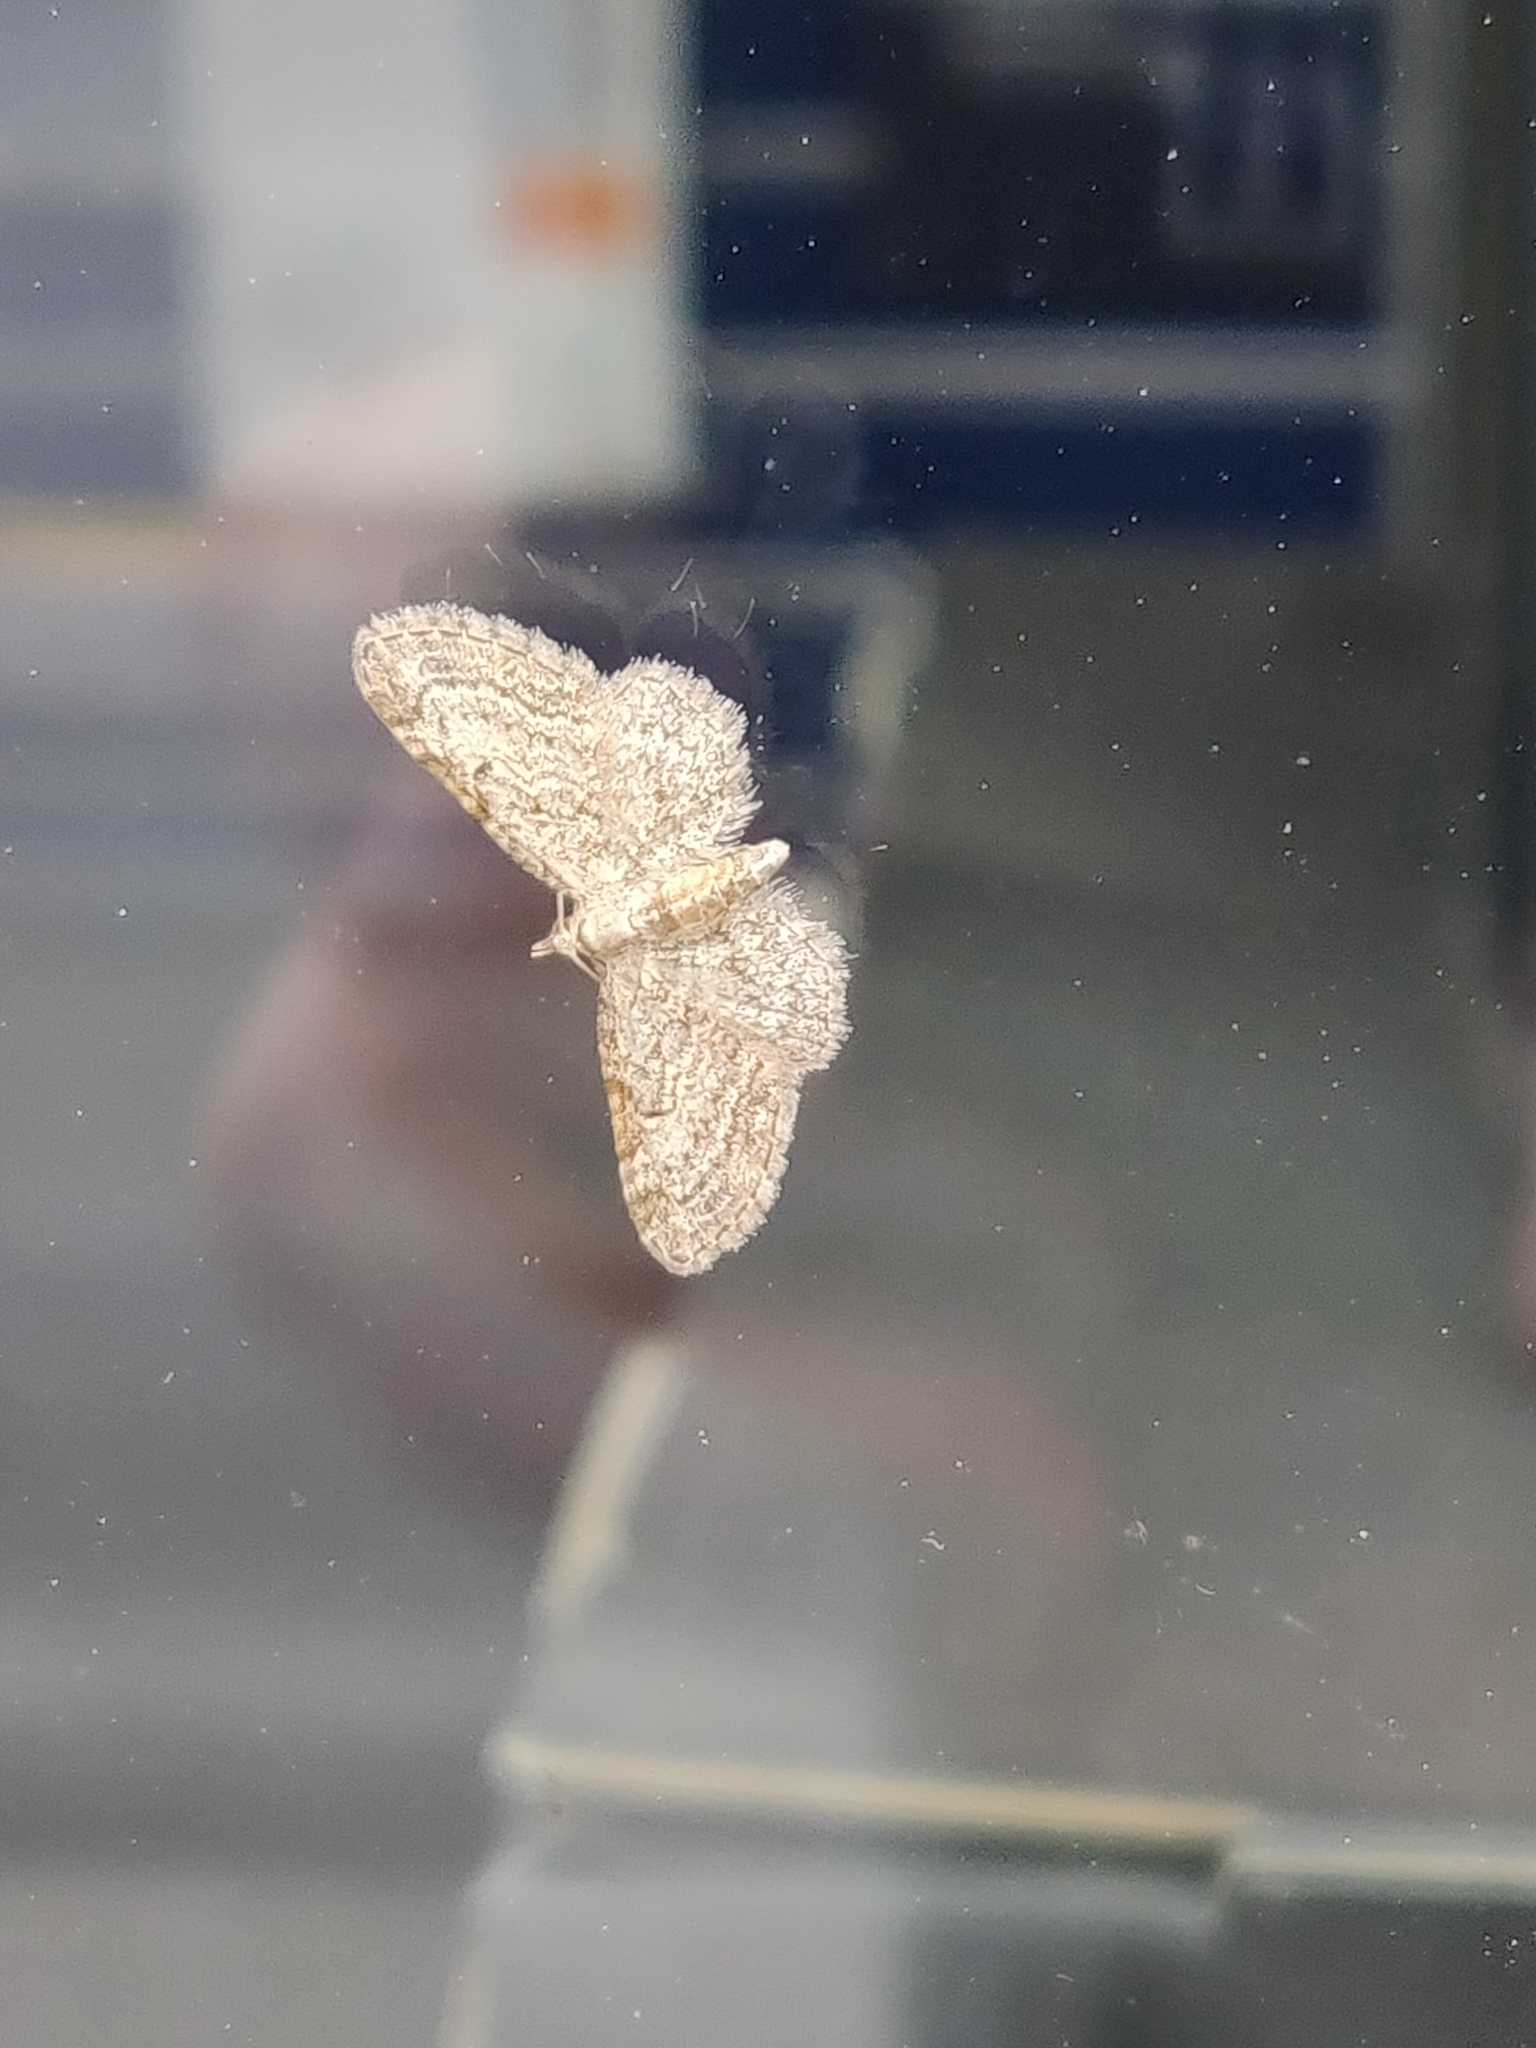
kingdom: Animalia
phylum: Arthropoda
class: Insecta
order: Lepidoptera
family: Geometridae
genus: Eupithecia
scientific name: Eupithecia tenuiata
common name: Slender pug
